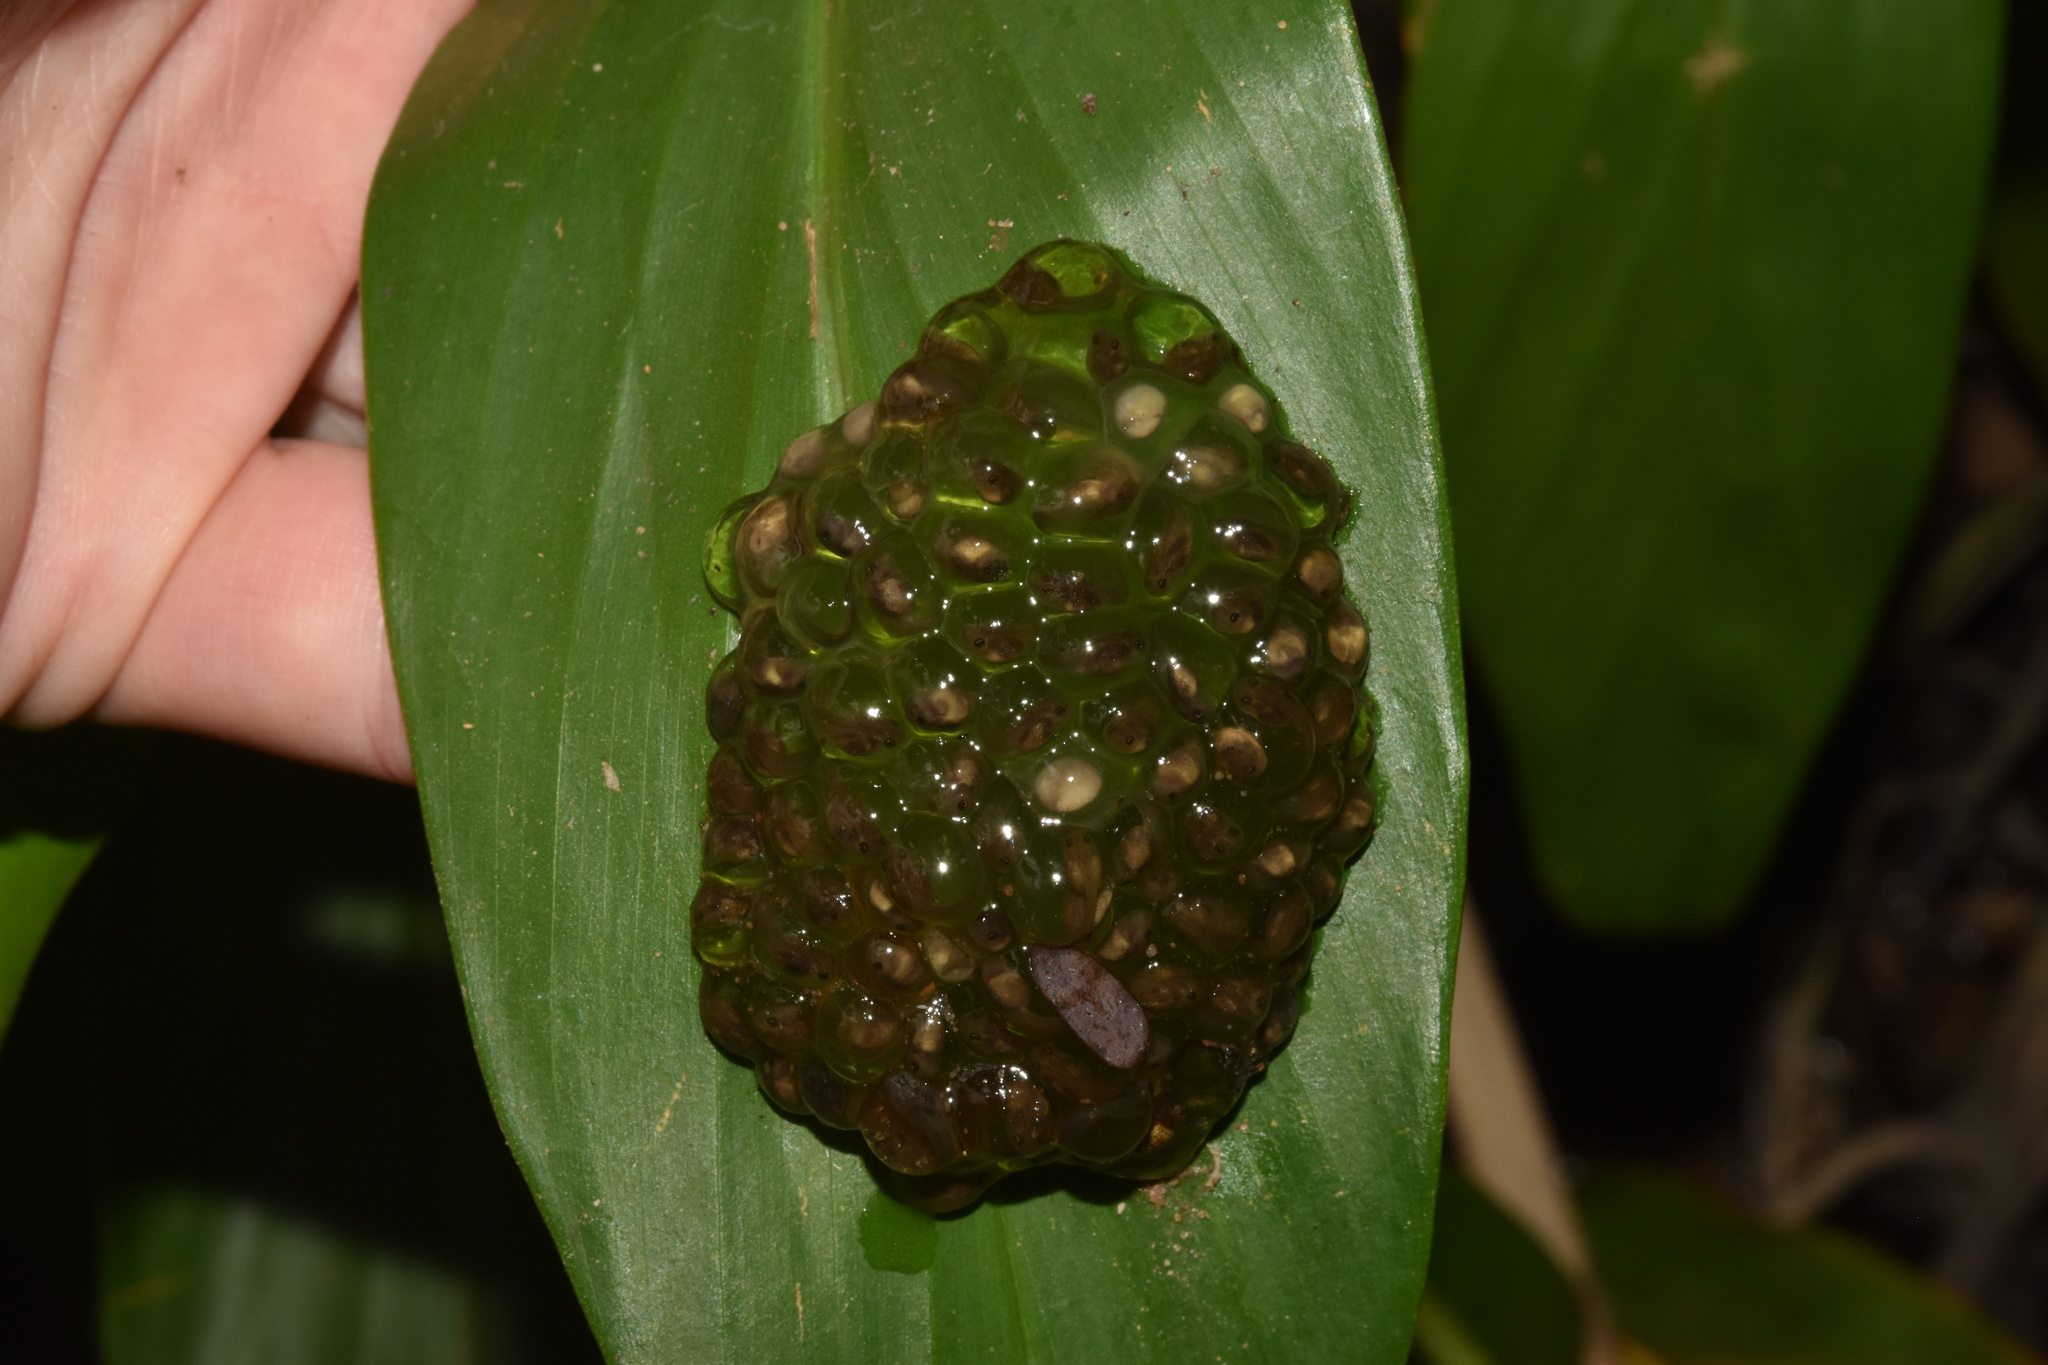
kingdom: Animalia
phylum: Chordata
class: Amphibia
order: Anura
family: Pyxicephalidae
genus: Natalobatrachus
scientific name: Natalobatrachus bonebergi
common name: Natal diving frog
